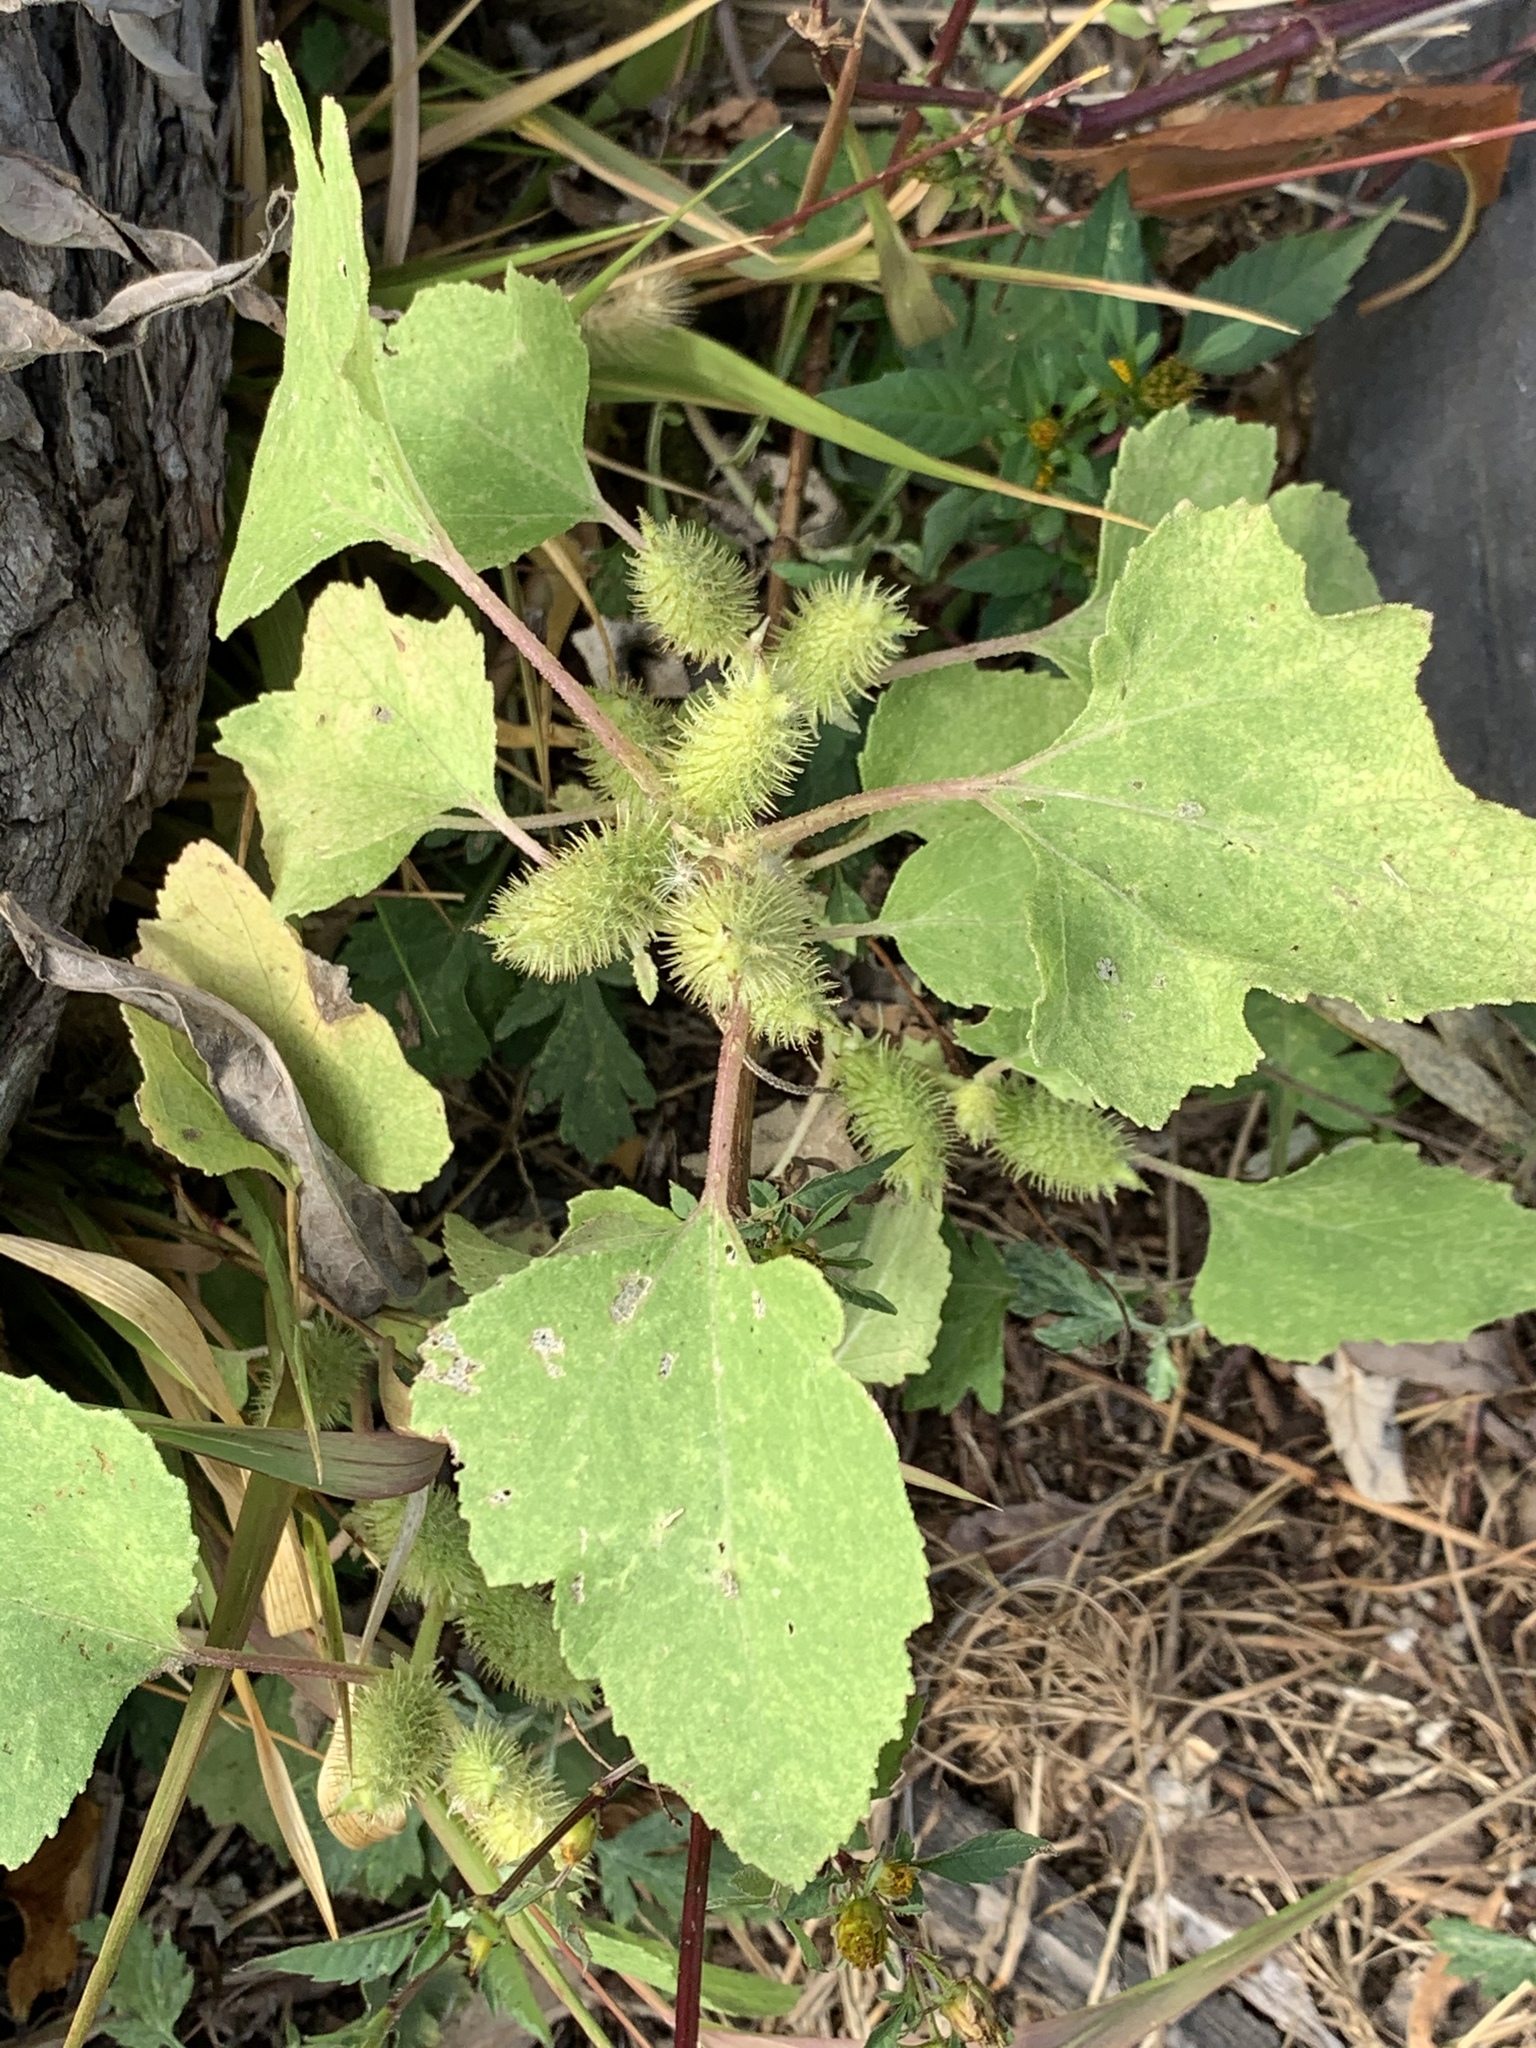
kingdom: Plantae
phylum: Tracheophyta
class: Magnoliopsida
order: Asterales
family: Asteraceae
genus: Xanthium
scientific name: Xanthium strumarium
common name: Rough cocklebur
